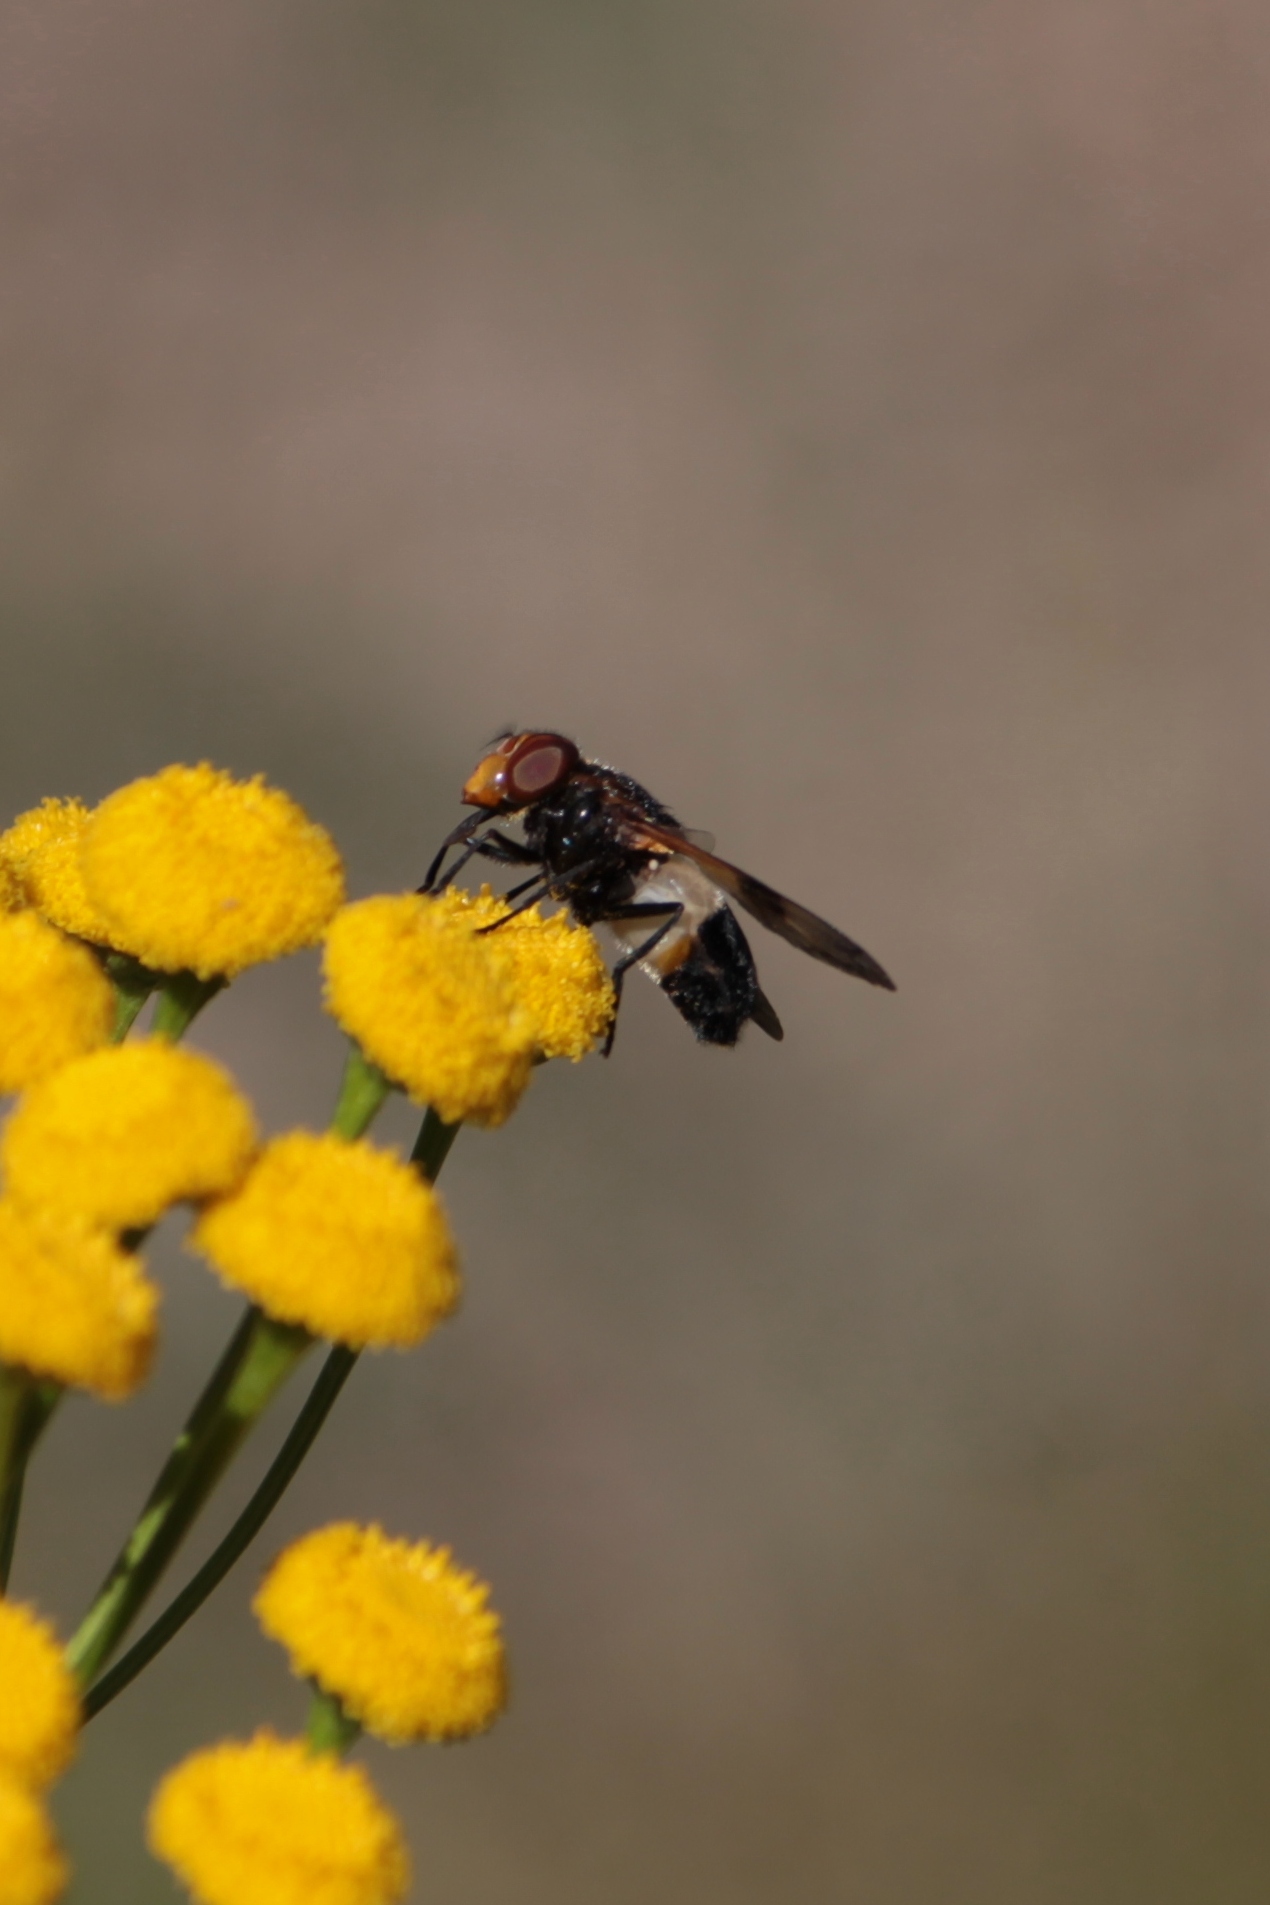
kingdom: Animalia
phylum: Arthropoda
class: Insecta
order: Diptera
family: Syrphidae
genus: Volucella
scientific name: Volucella pellucens
